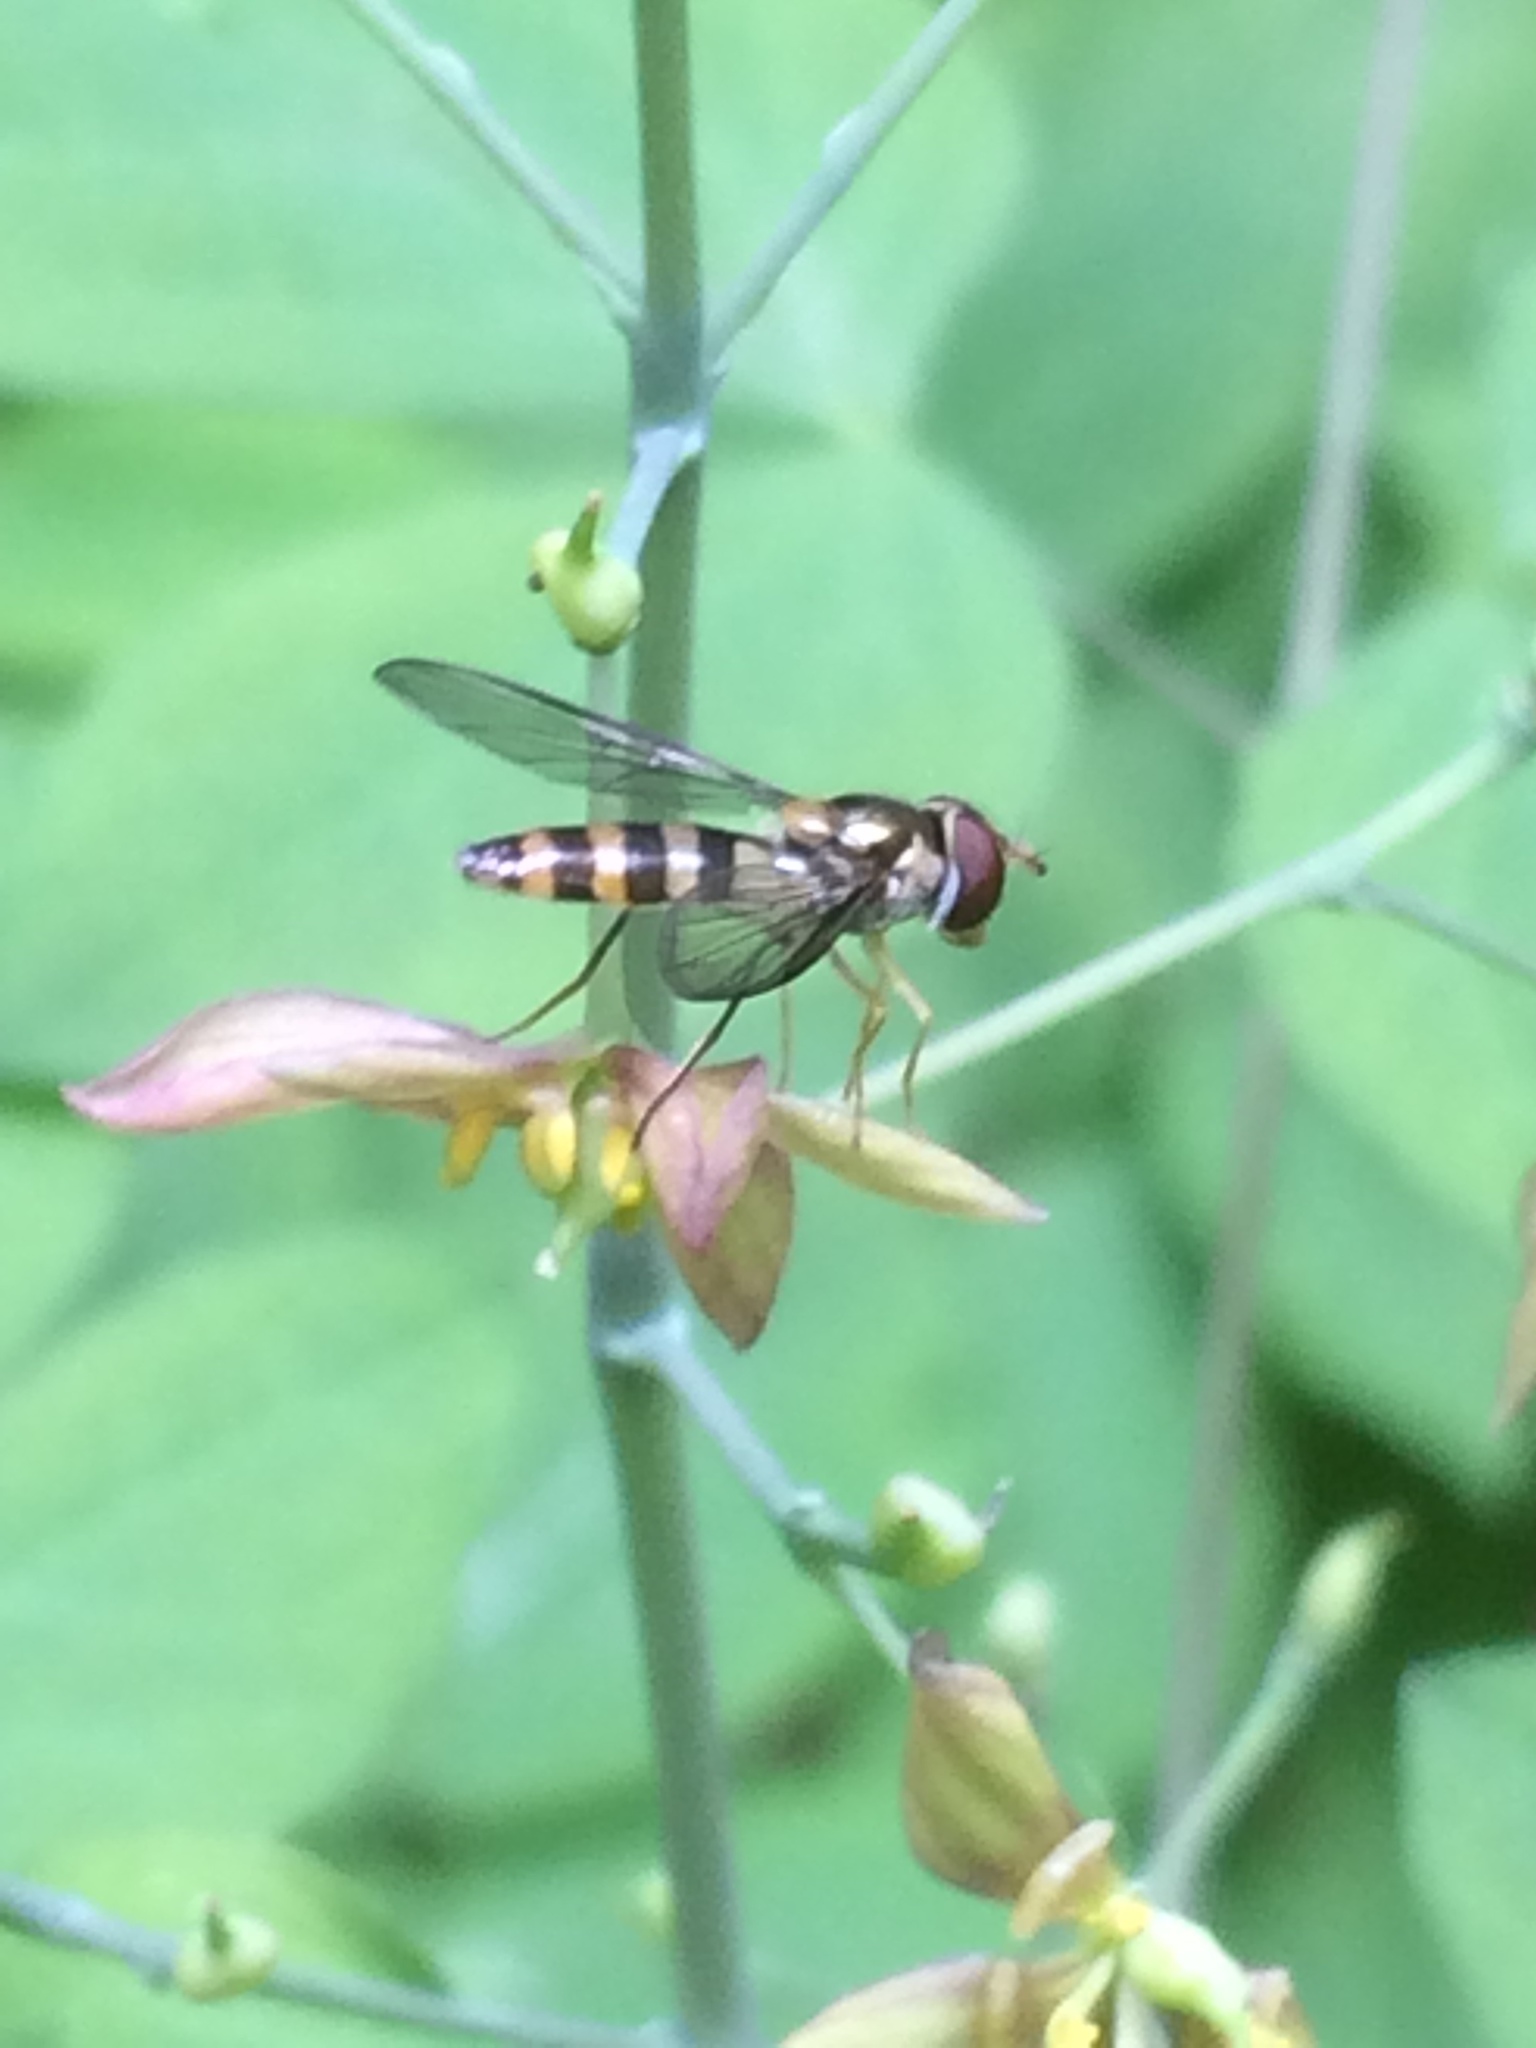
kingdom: Animalia
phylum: Arthropoda
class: Insecta
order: Diptera
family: Syrphidae
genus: Meliscaeva
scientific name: Meliscaeva cinctella
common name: American thintail fly
